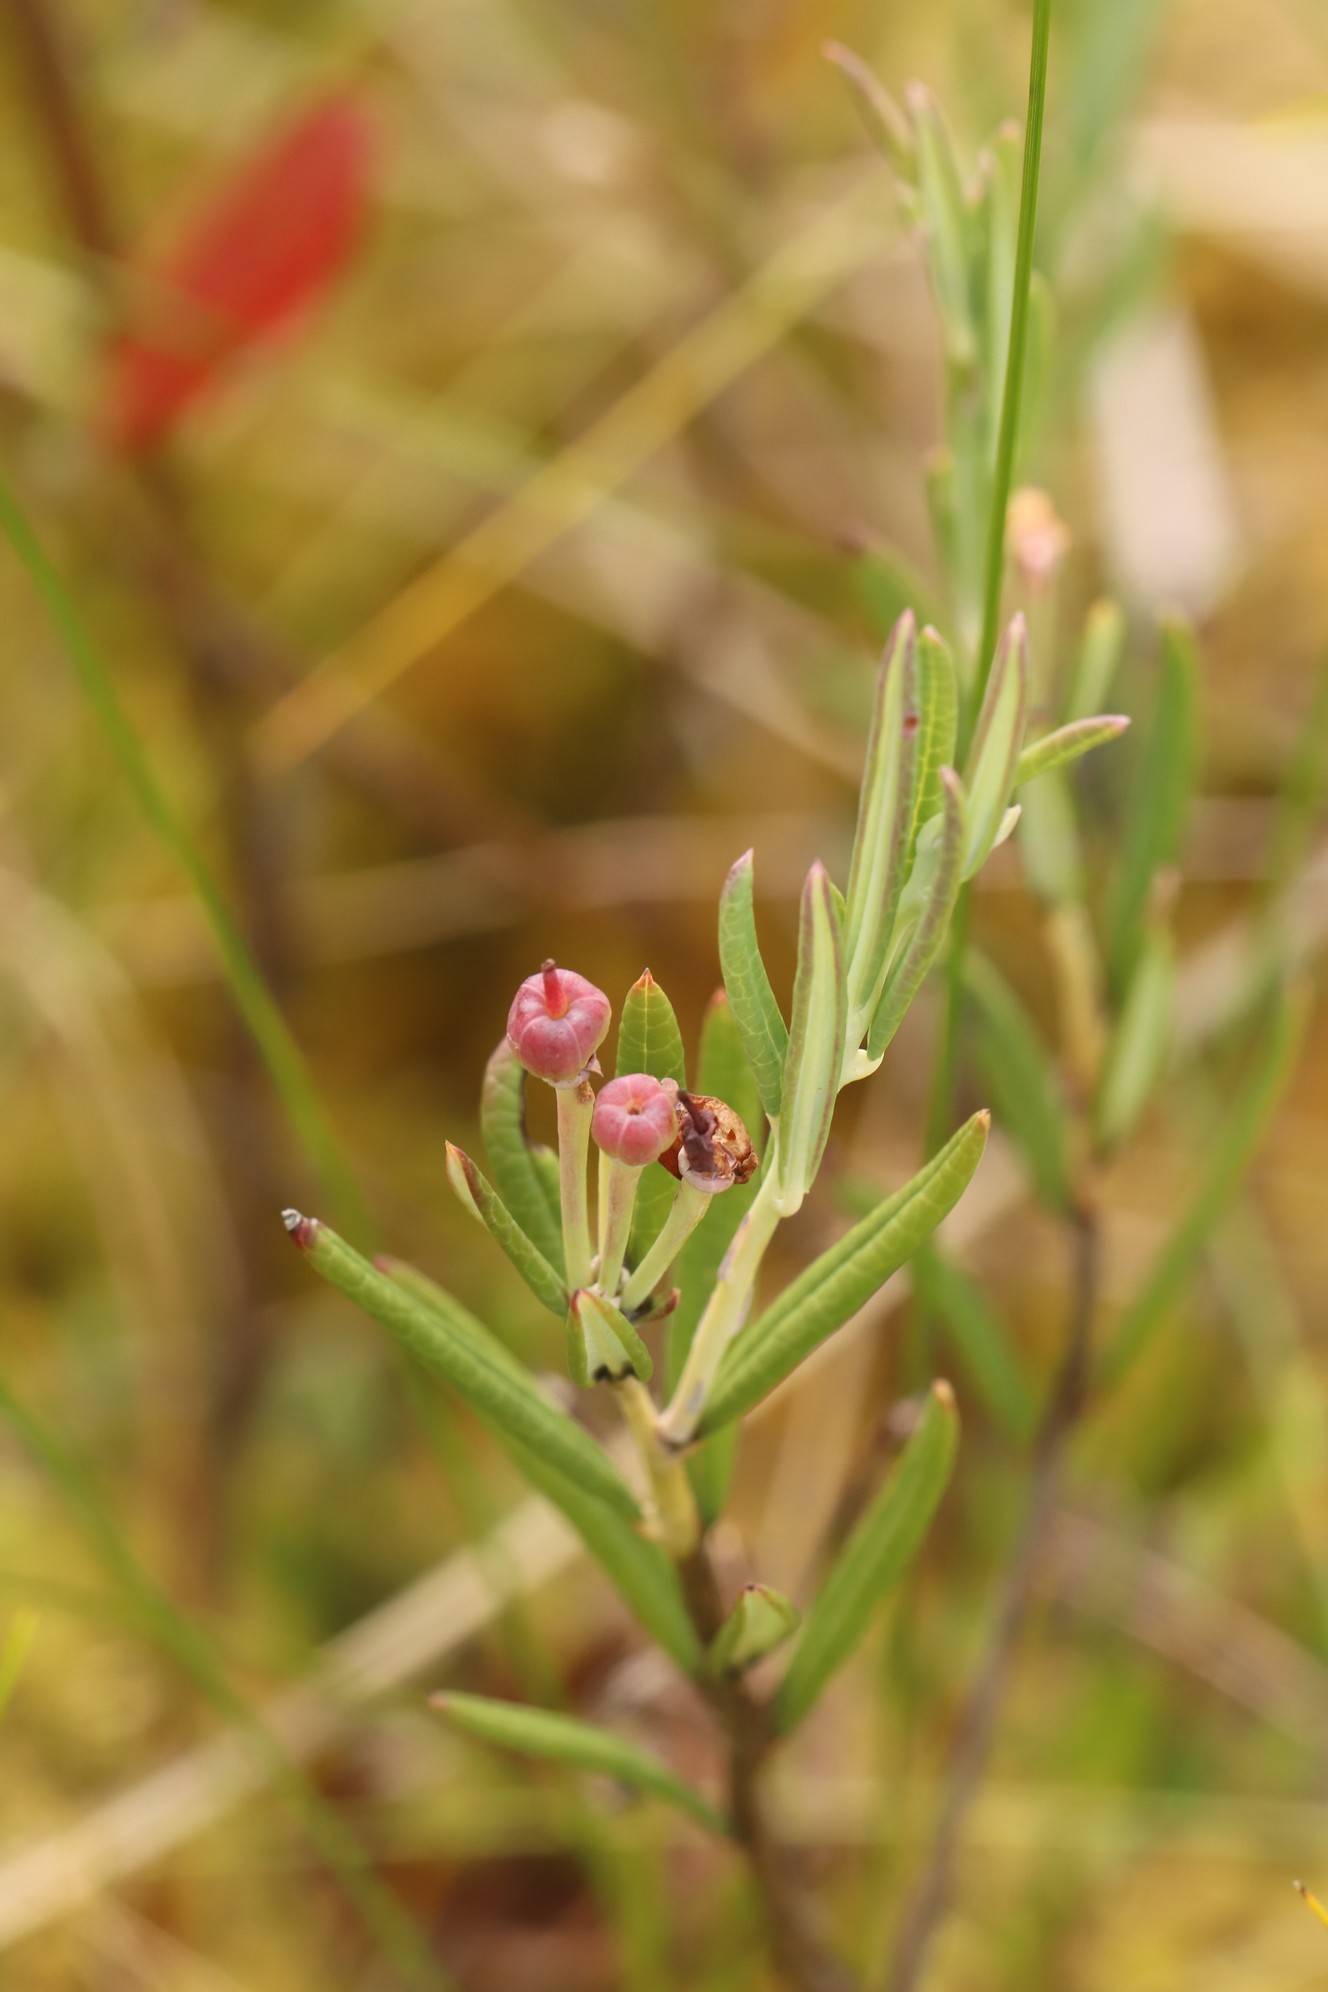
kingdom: Plantae
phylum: Tracheophyta
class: Magnoliopsida
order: Ericales
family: Ericaceae
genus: Andromeda
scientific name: Andromeda polifolia
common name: Bog-rosemary
